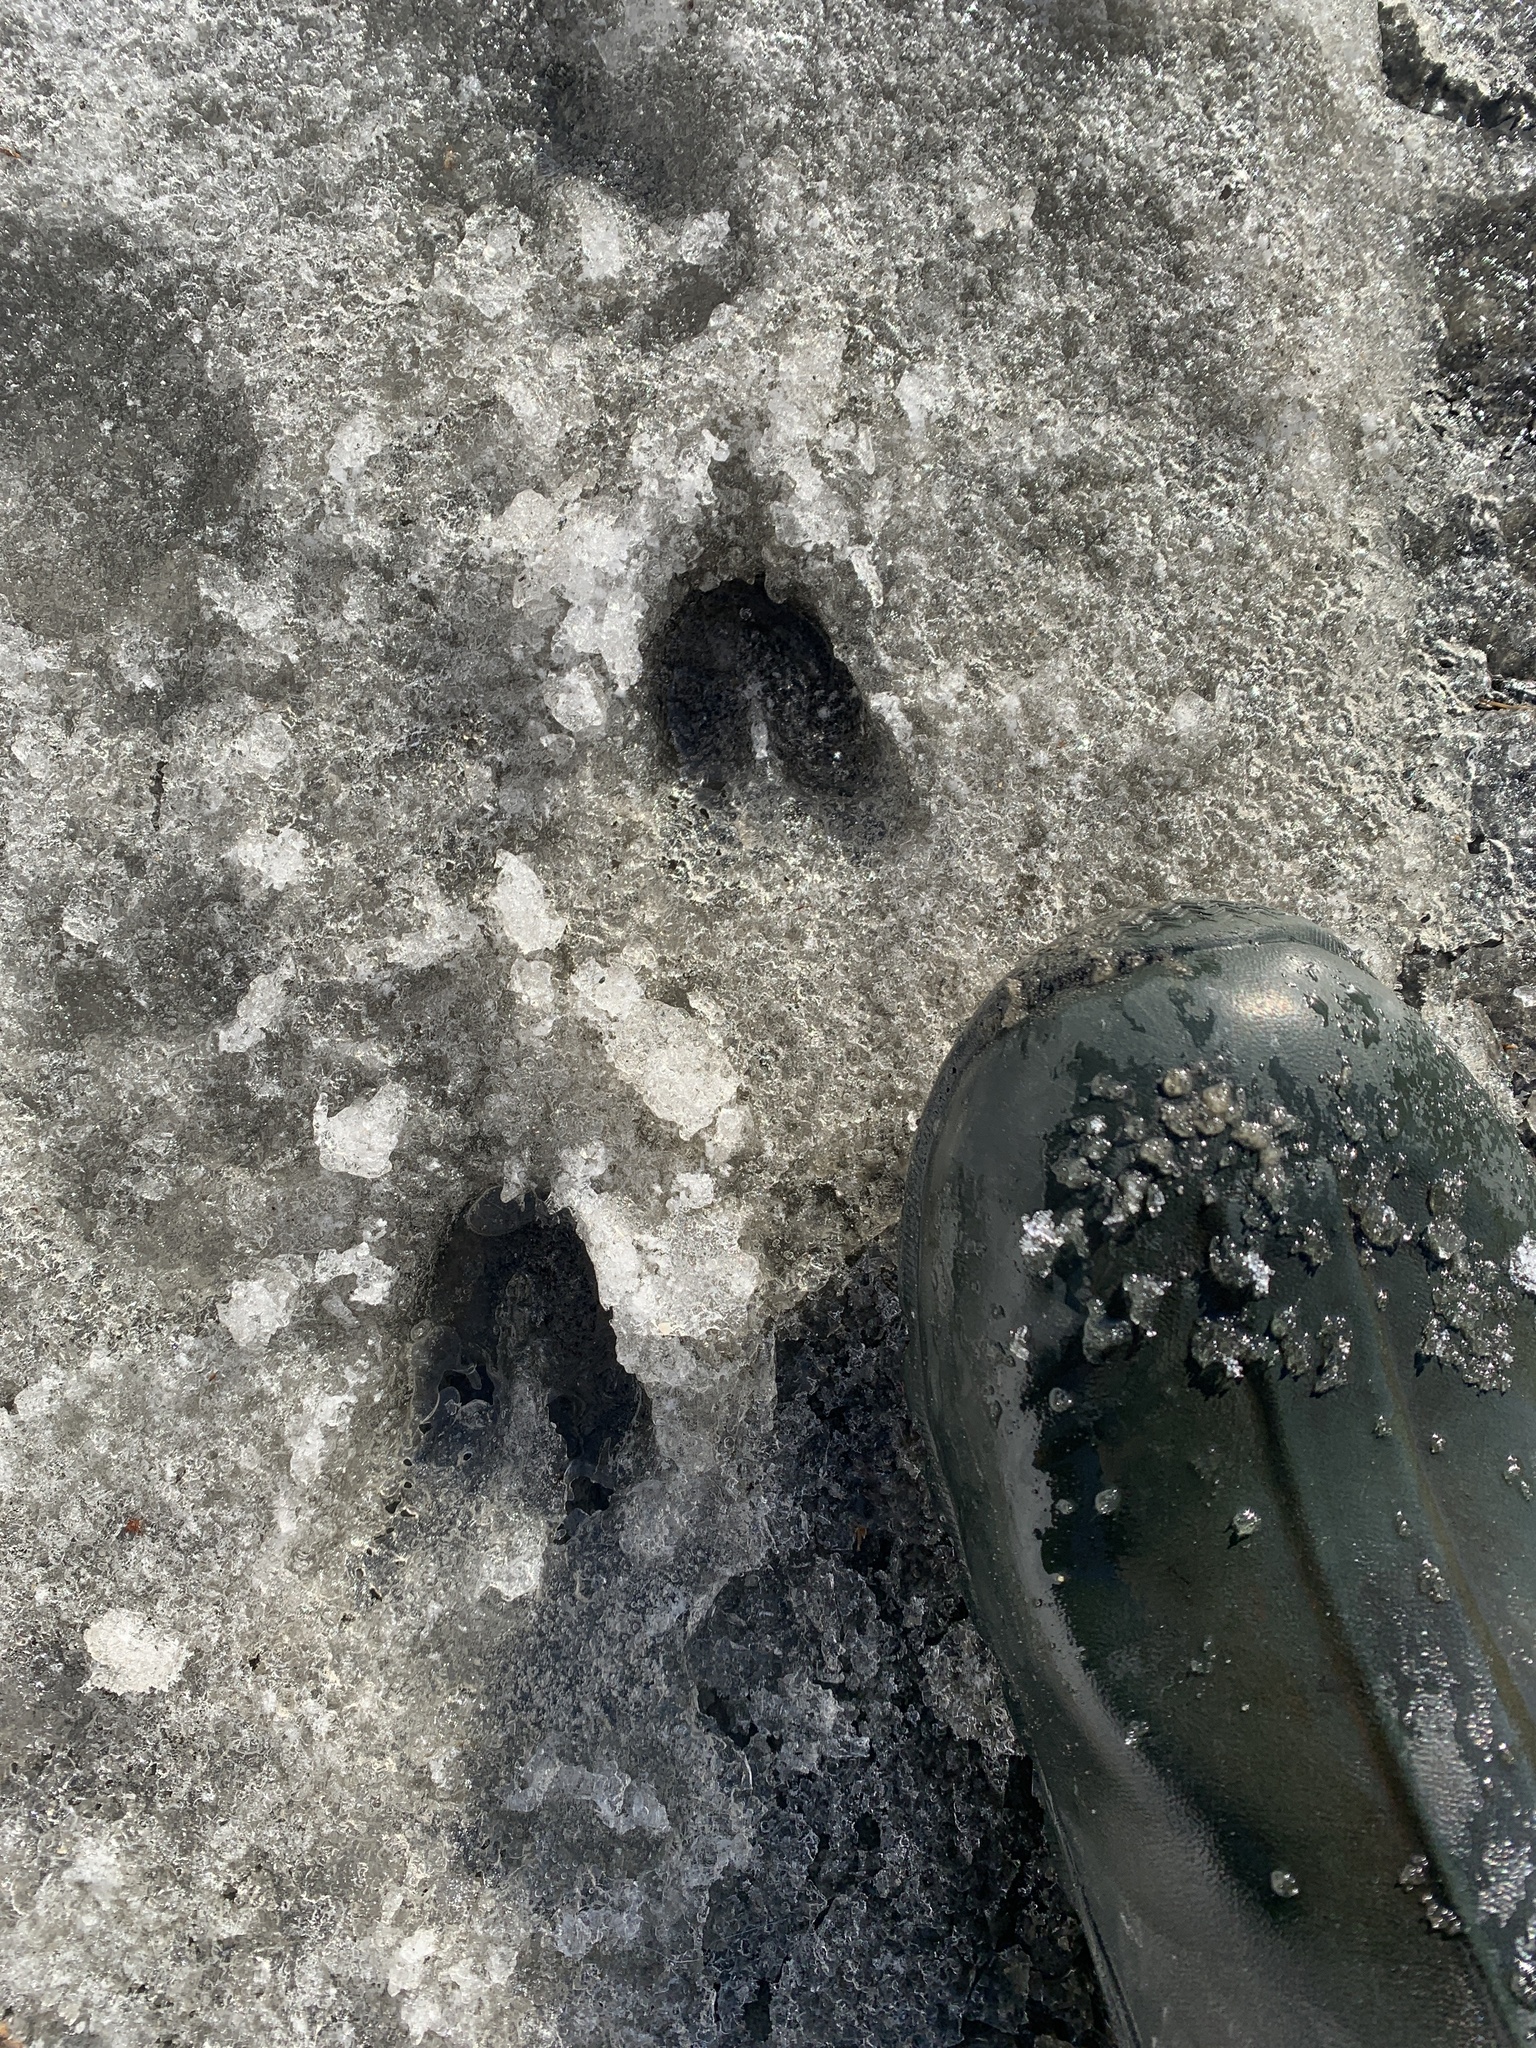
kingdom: Animalia
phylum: Chordata
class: Mammalia
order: Artiodactyla
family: Cervidae
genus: Odocoileus
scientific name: Odocoileus virginianus
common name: White-tailed deer
